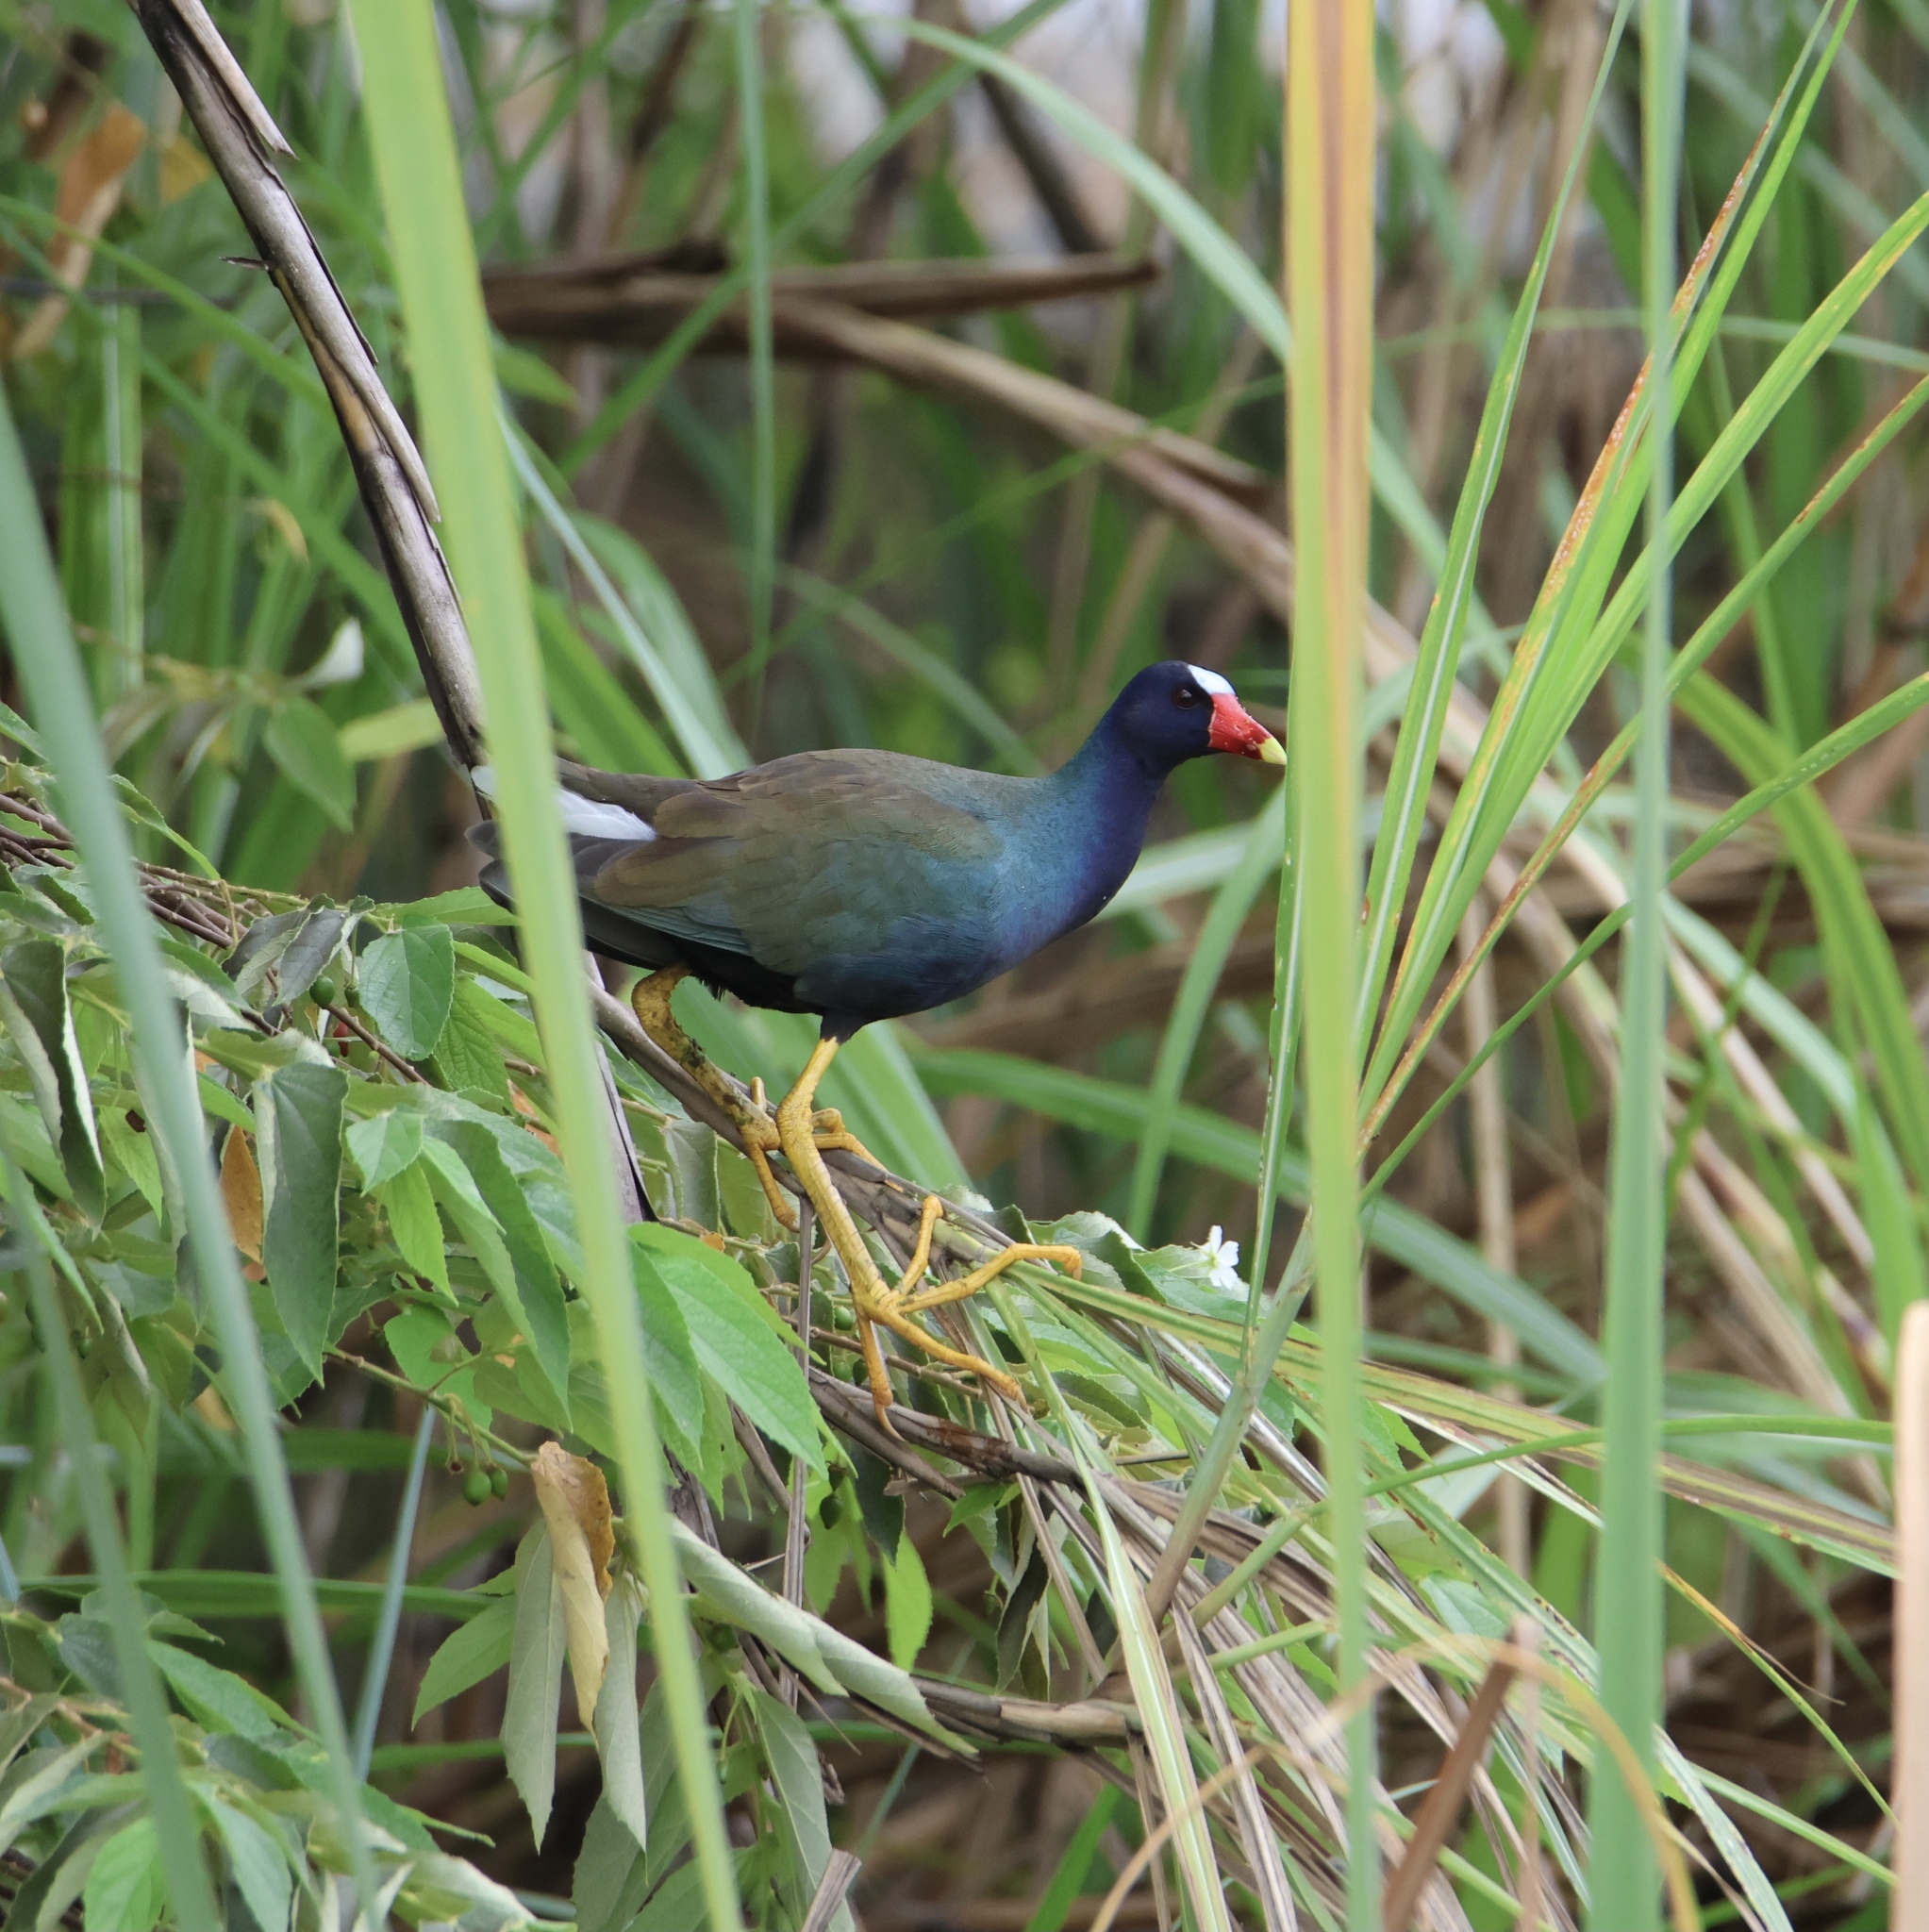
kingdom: Animalia
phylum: Chordata
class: Aves
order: Gruiformes
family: Rallidae
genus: Porphyrio
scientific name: Porphyrio martinica
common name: Purple gallinule
